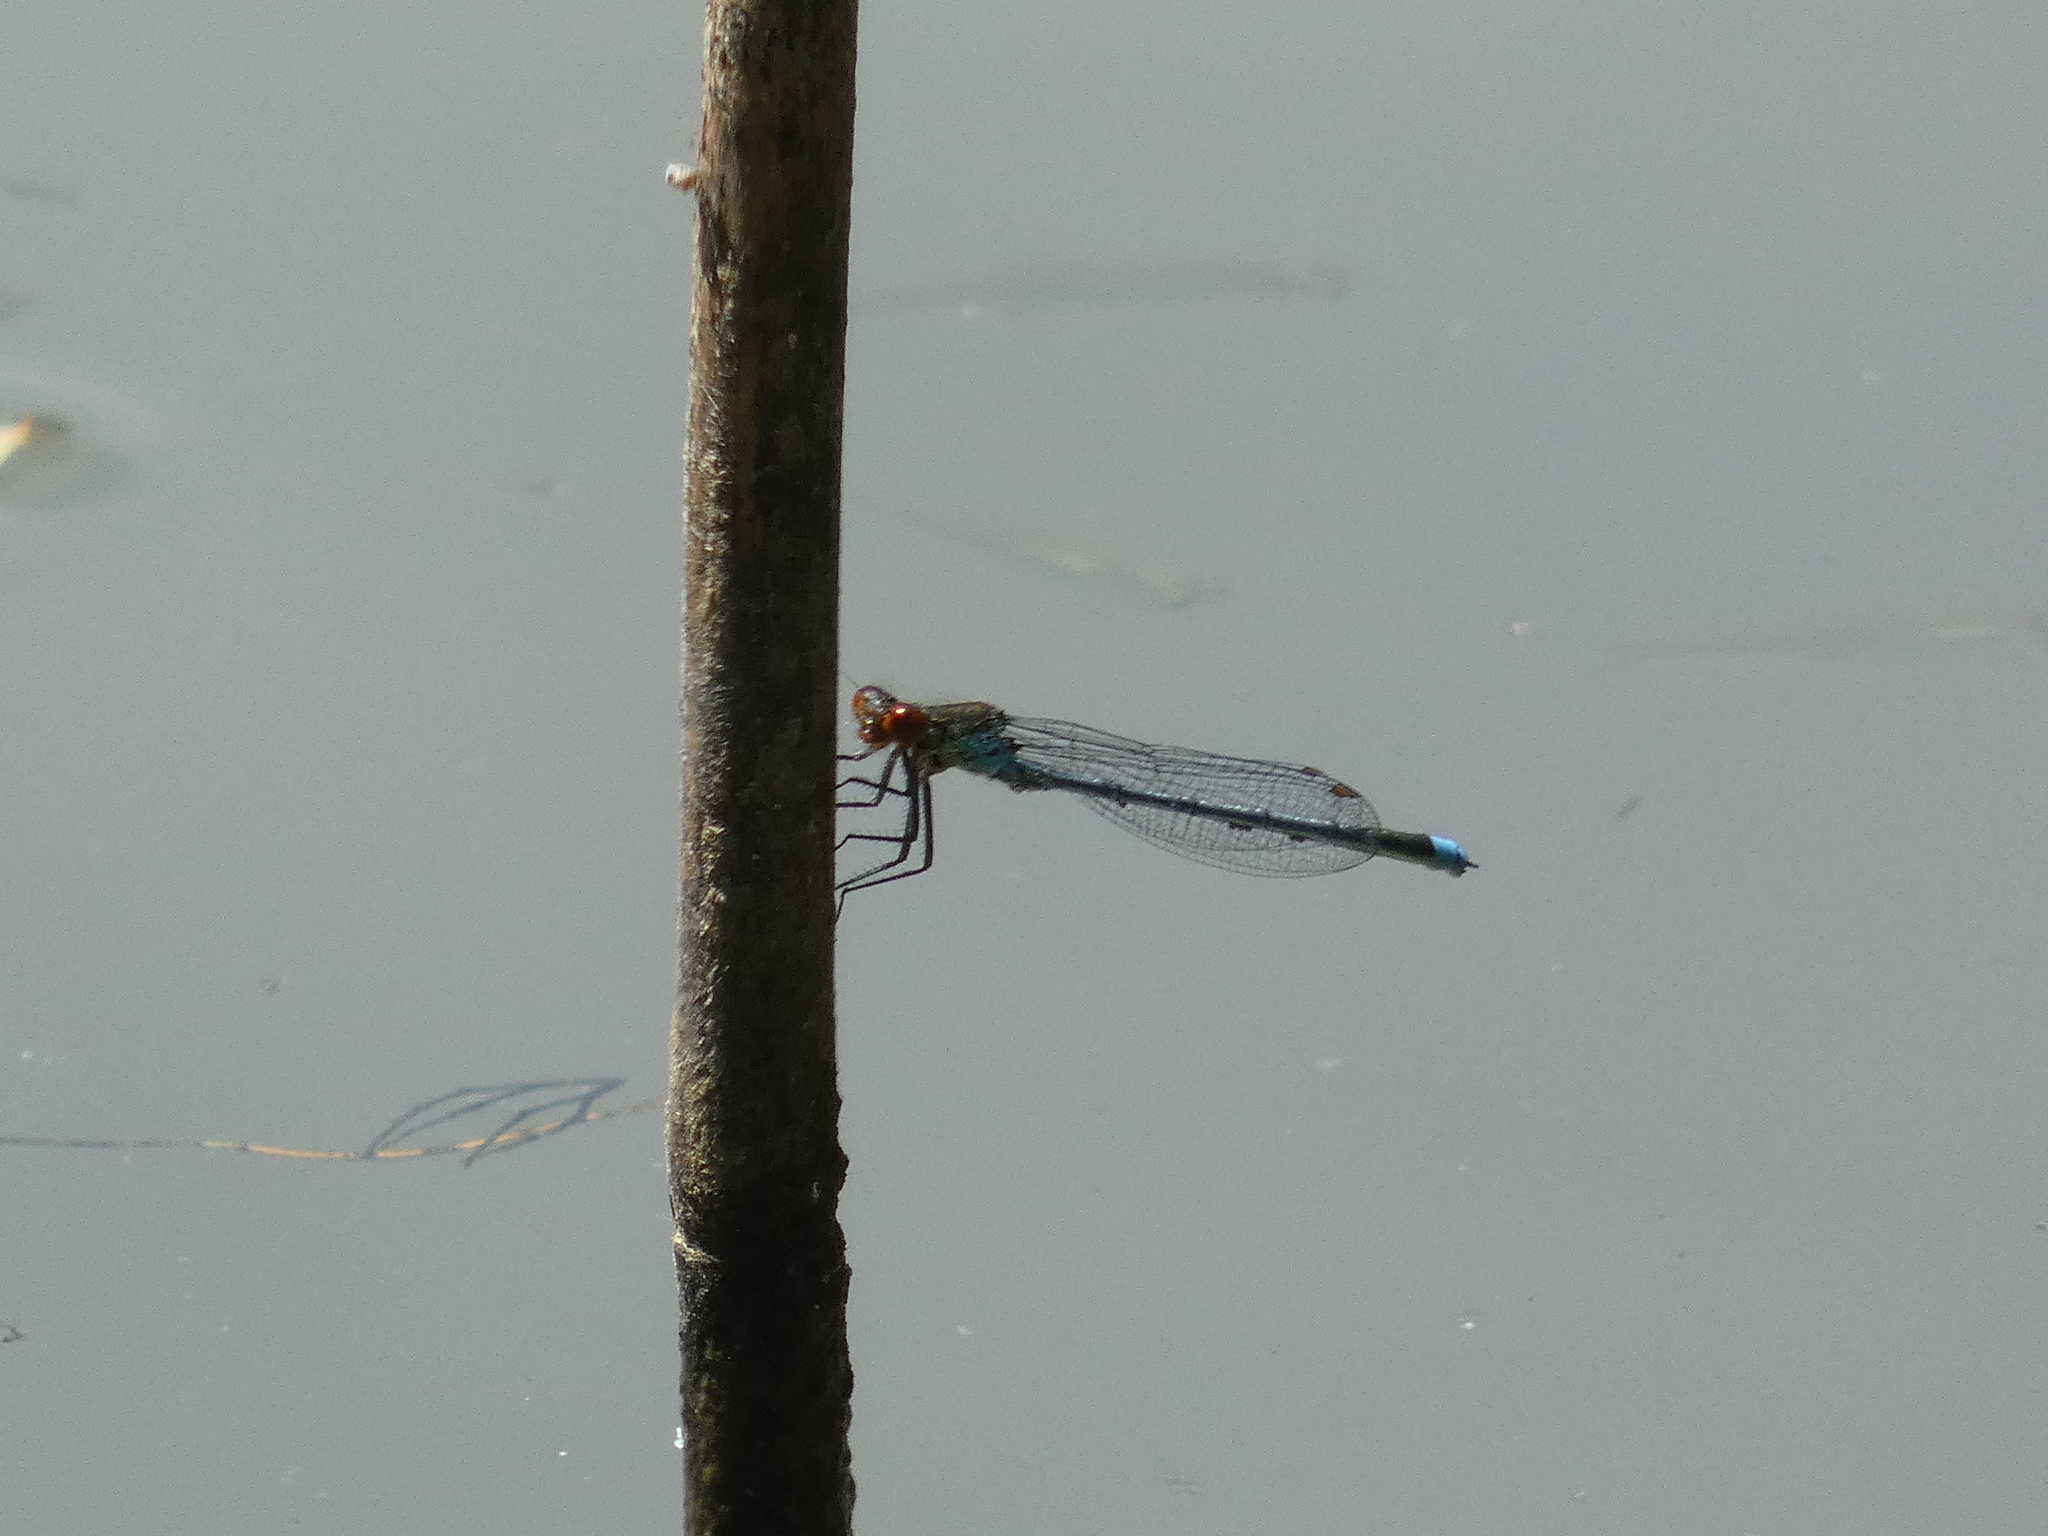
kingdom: Animalia
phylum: Arthropoda
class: Insecta
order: Odonata
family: Coenagrionidae
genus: Erythromma
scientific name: Erythromma najas
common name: Red-eyed damselfly
